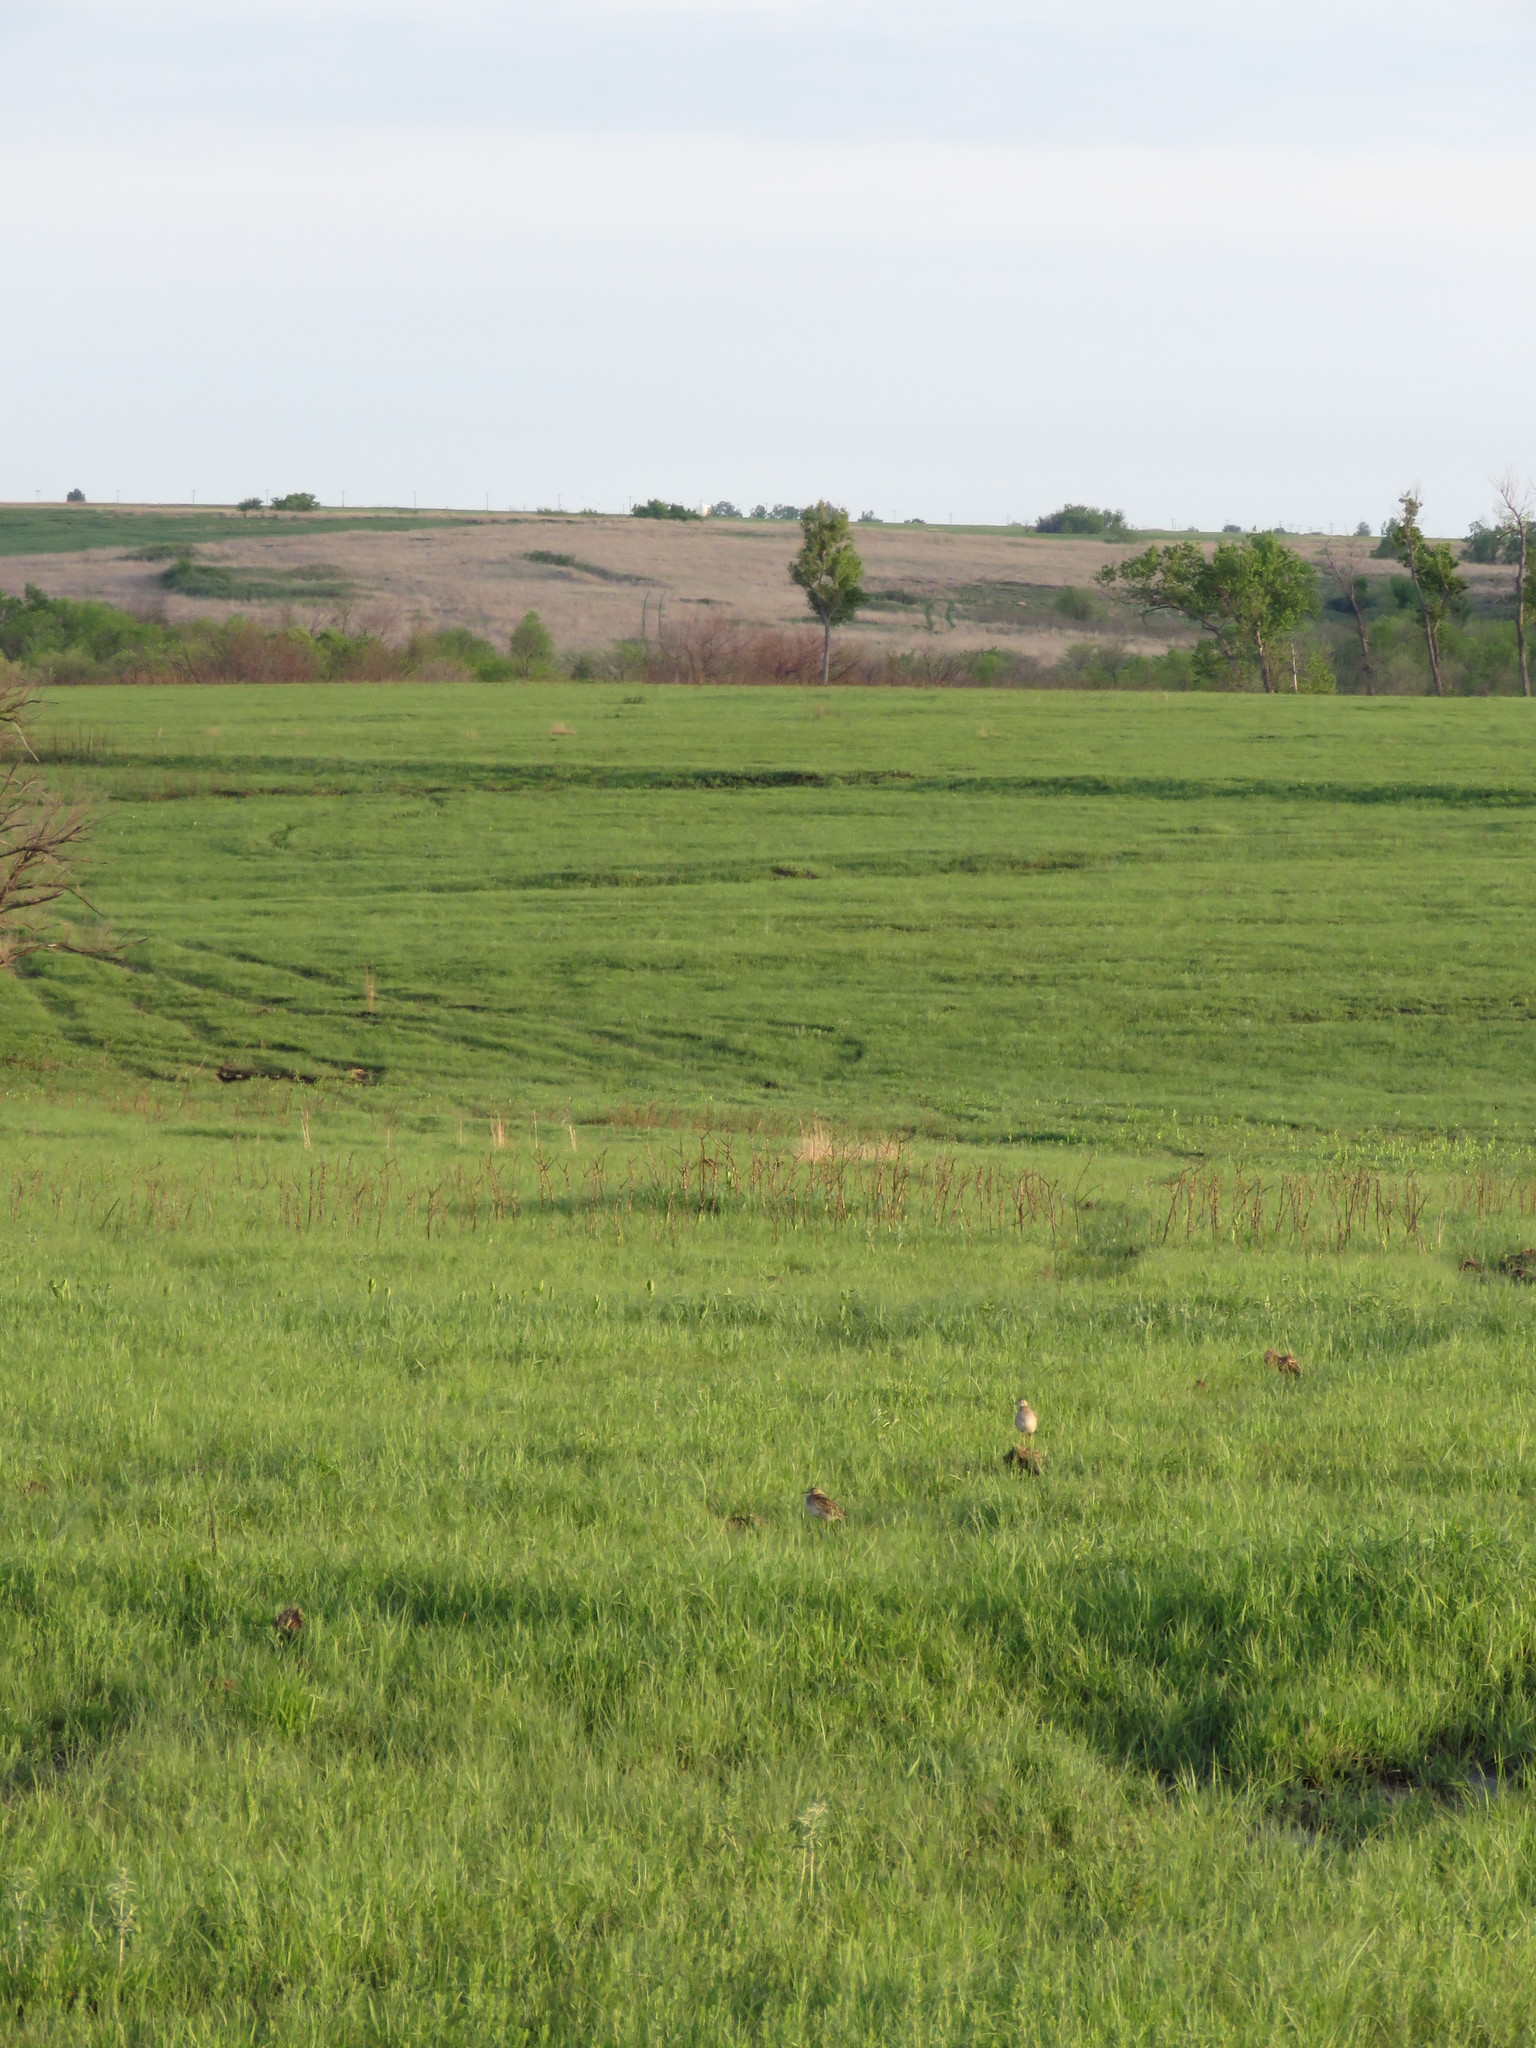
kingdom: Animalia
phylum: Chordata
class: Aves
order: Charadriiformes
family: Scolopacidae
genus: Bartramia
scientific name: Bartramia longicauda
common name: Upland sandpiper
